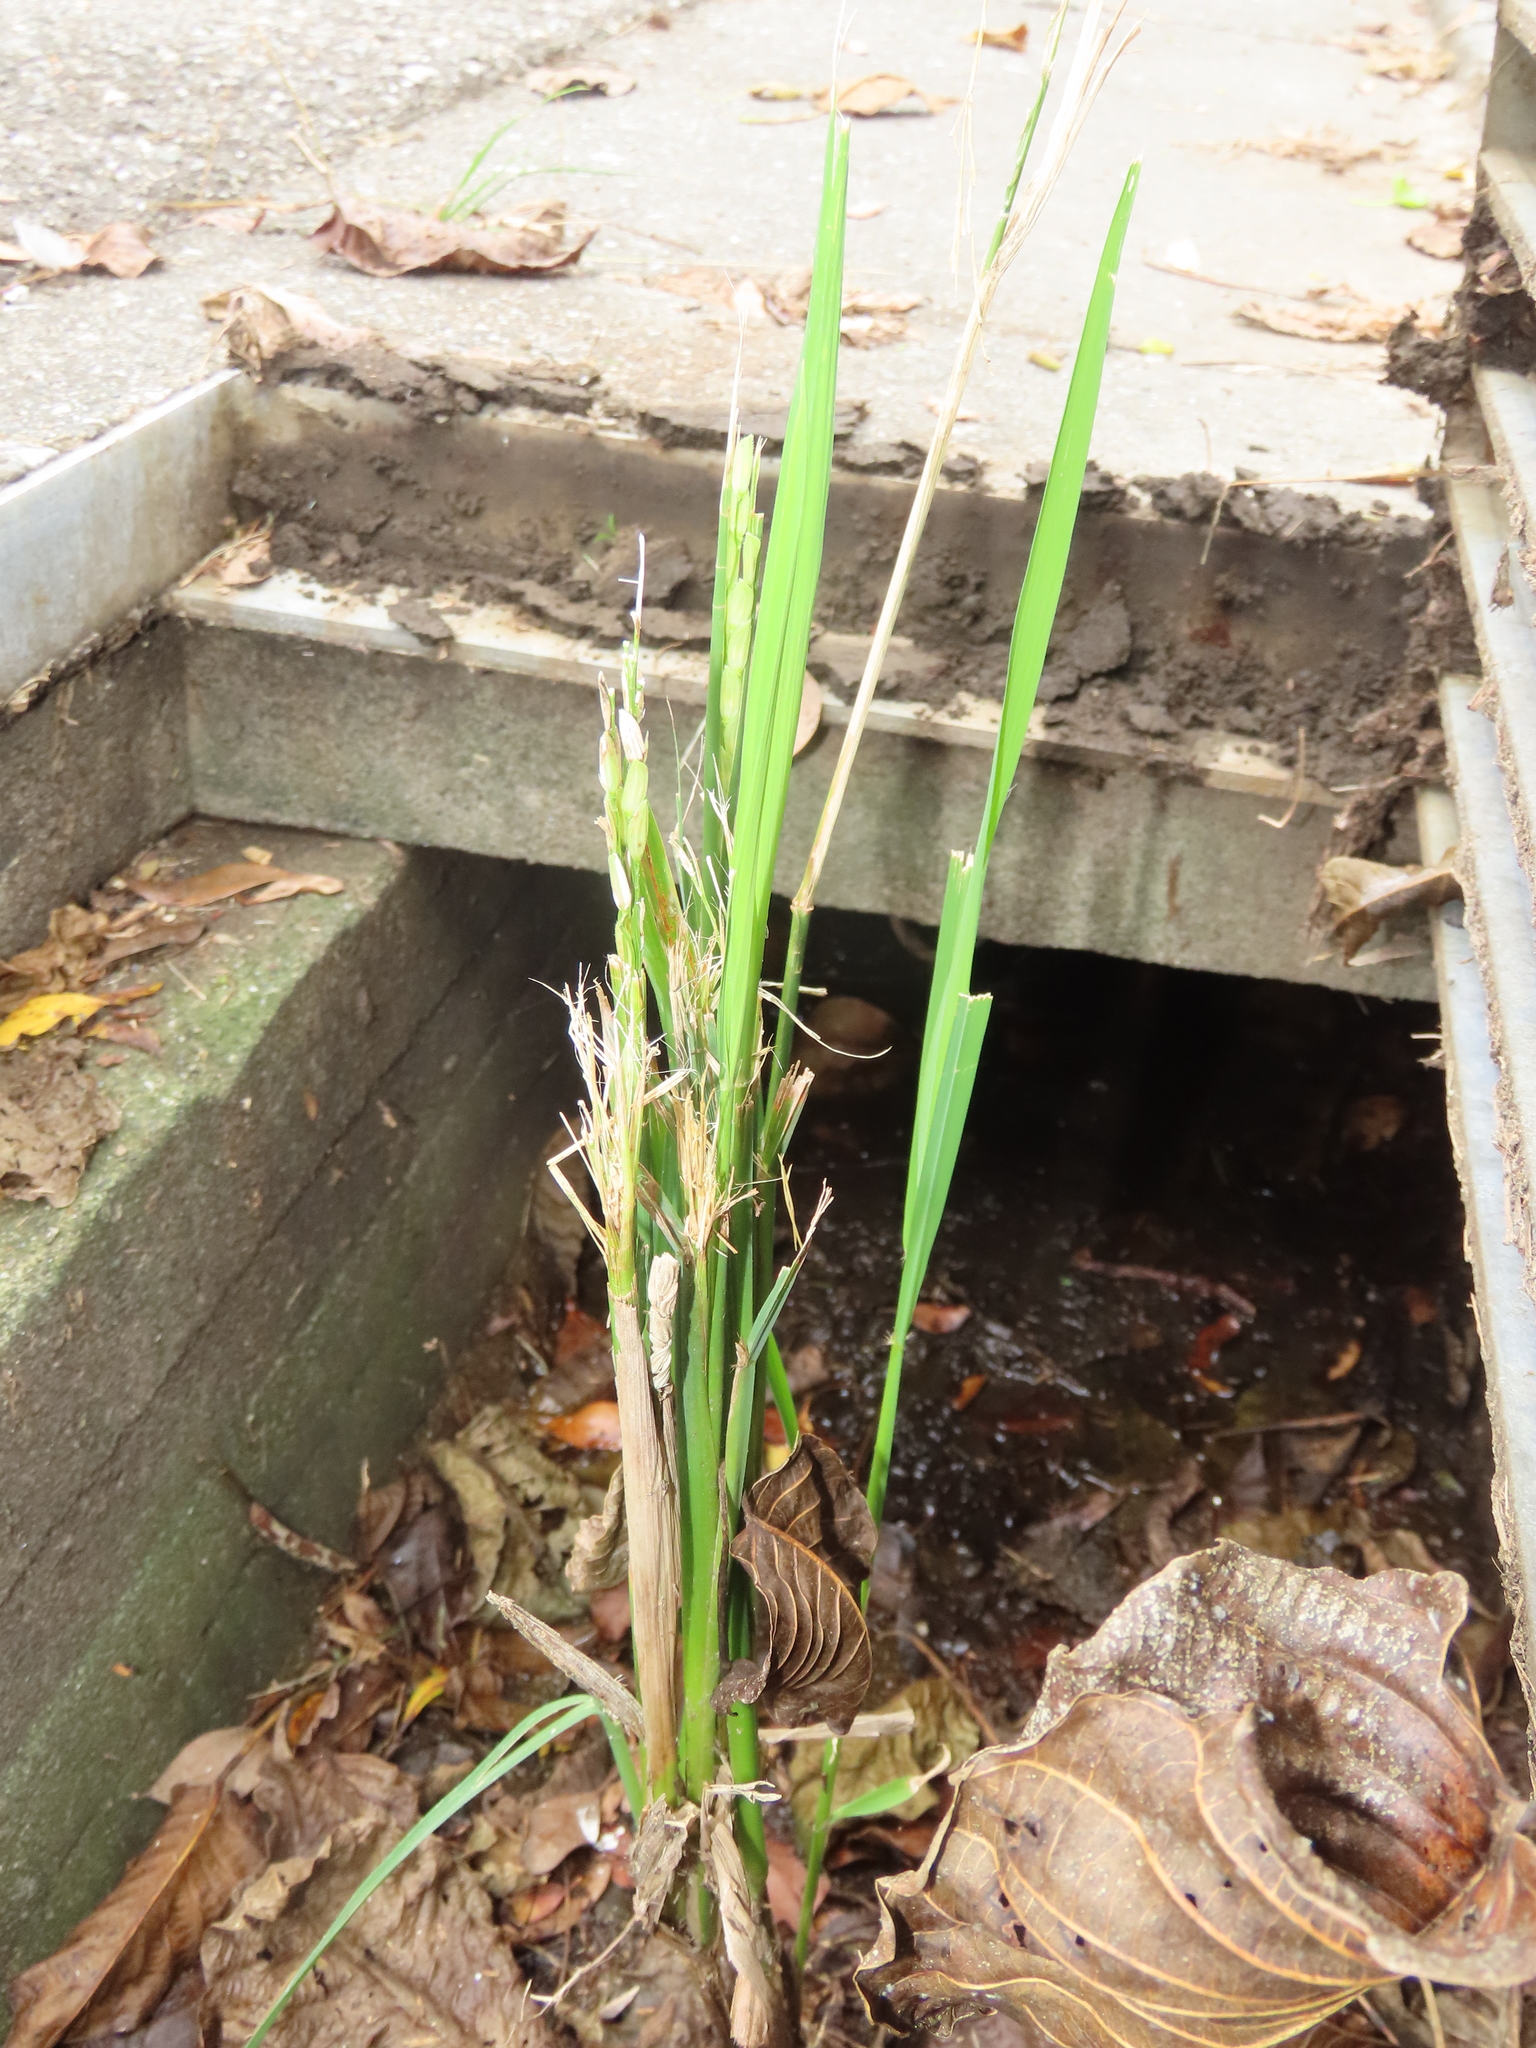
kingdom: Plantae
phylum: Tracheophyta
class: Liliopsida
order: Poales
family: Poaceae
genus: Oryza
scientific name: Oryza sativa
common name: Rice
